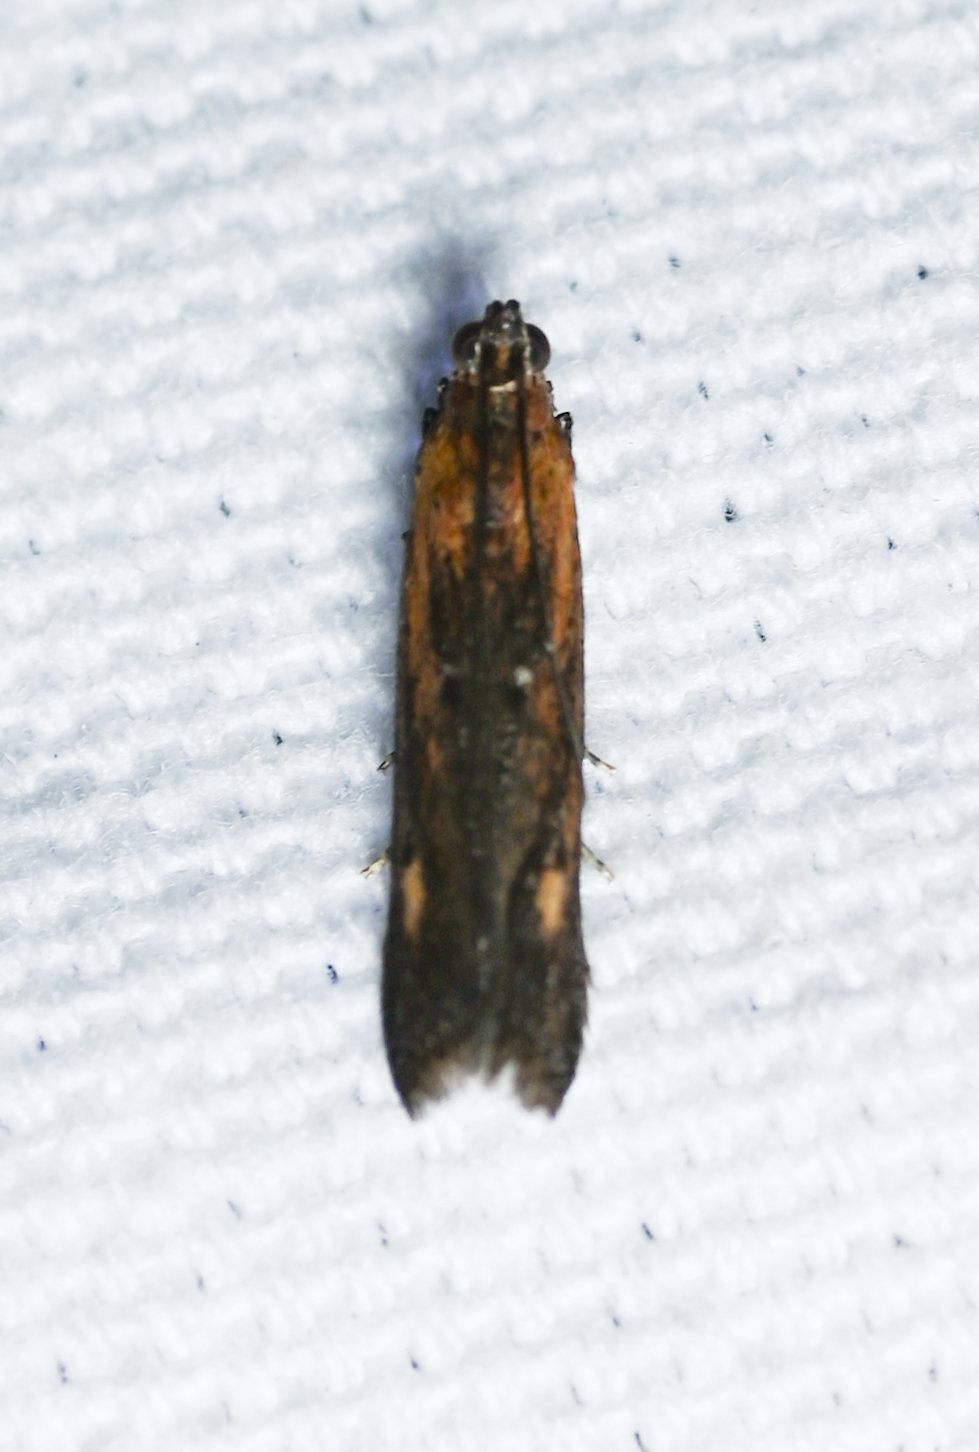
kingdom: Animalia
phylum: Arthropoda
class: Insecta
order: Lepidoptera
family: Pyralidae
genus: Elasmopalpus
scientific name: Elasmopalpus lignosella
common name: Lesser cornstalk borer
